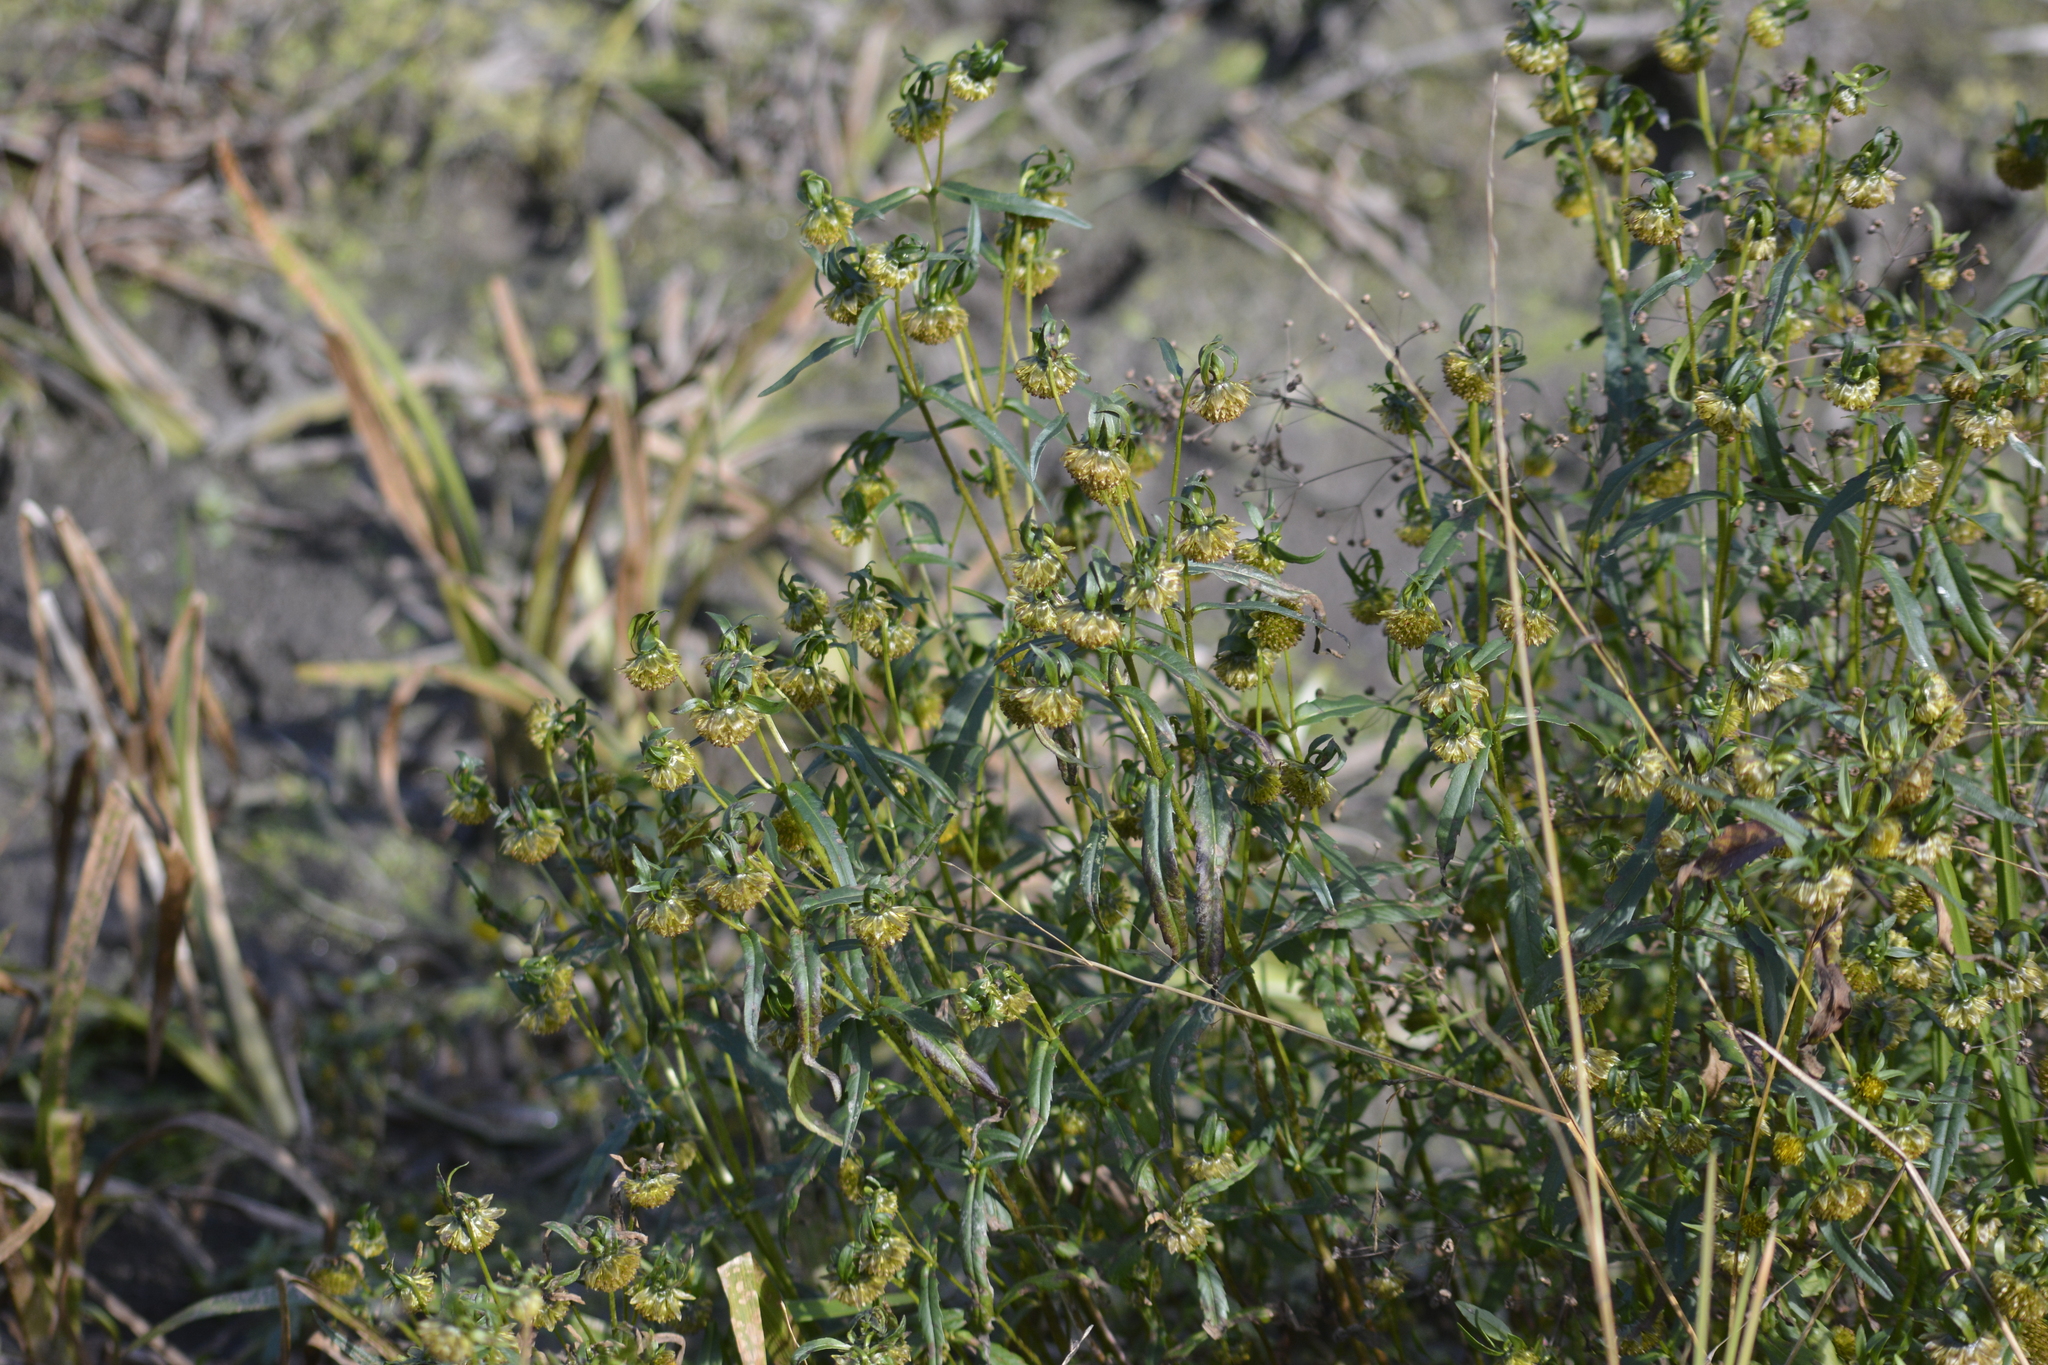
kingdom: Plantae
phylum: Tracheophyta
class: Magnoliopsida
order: Asterales
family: Asteraceae
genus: Bidens
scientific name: Bidens cernua
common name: Nodding bur-marigold
